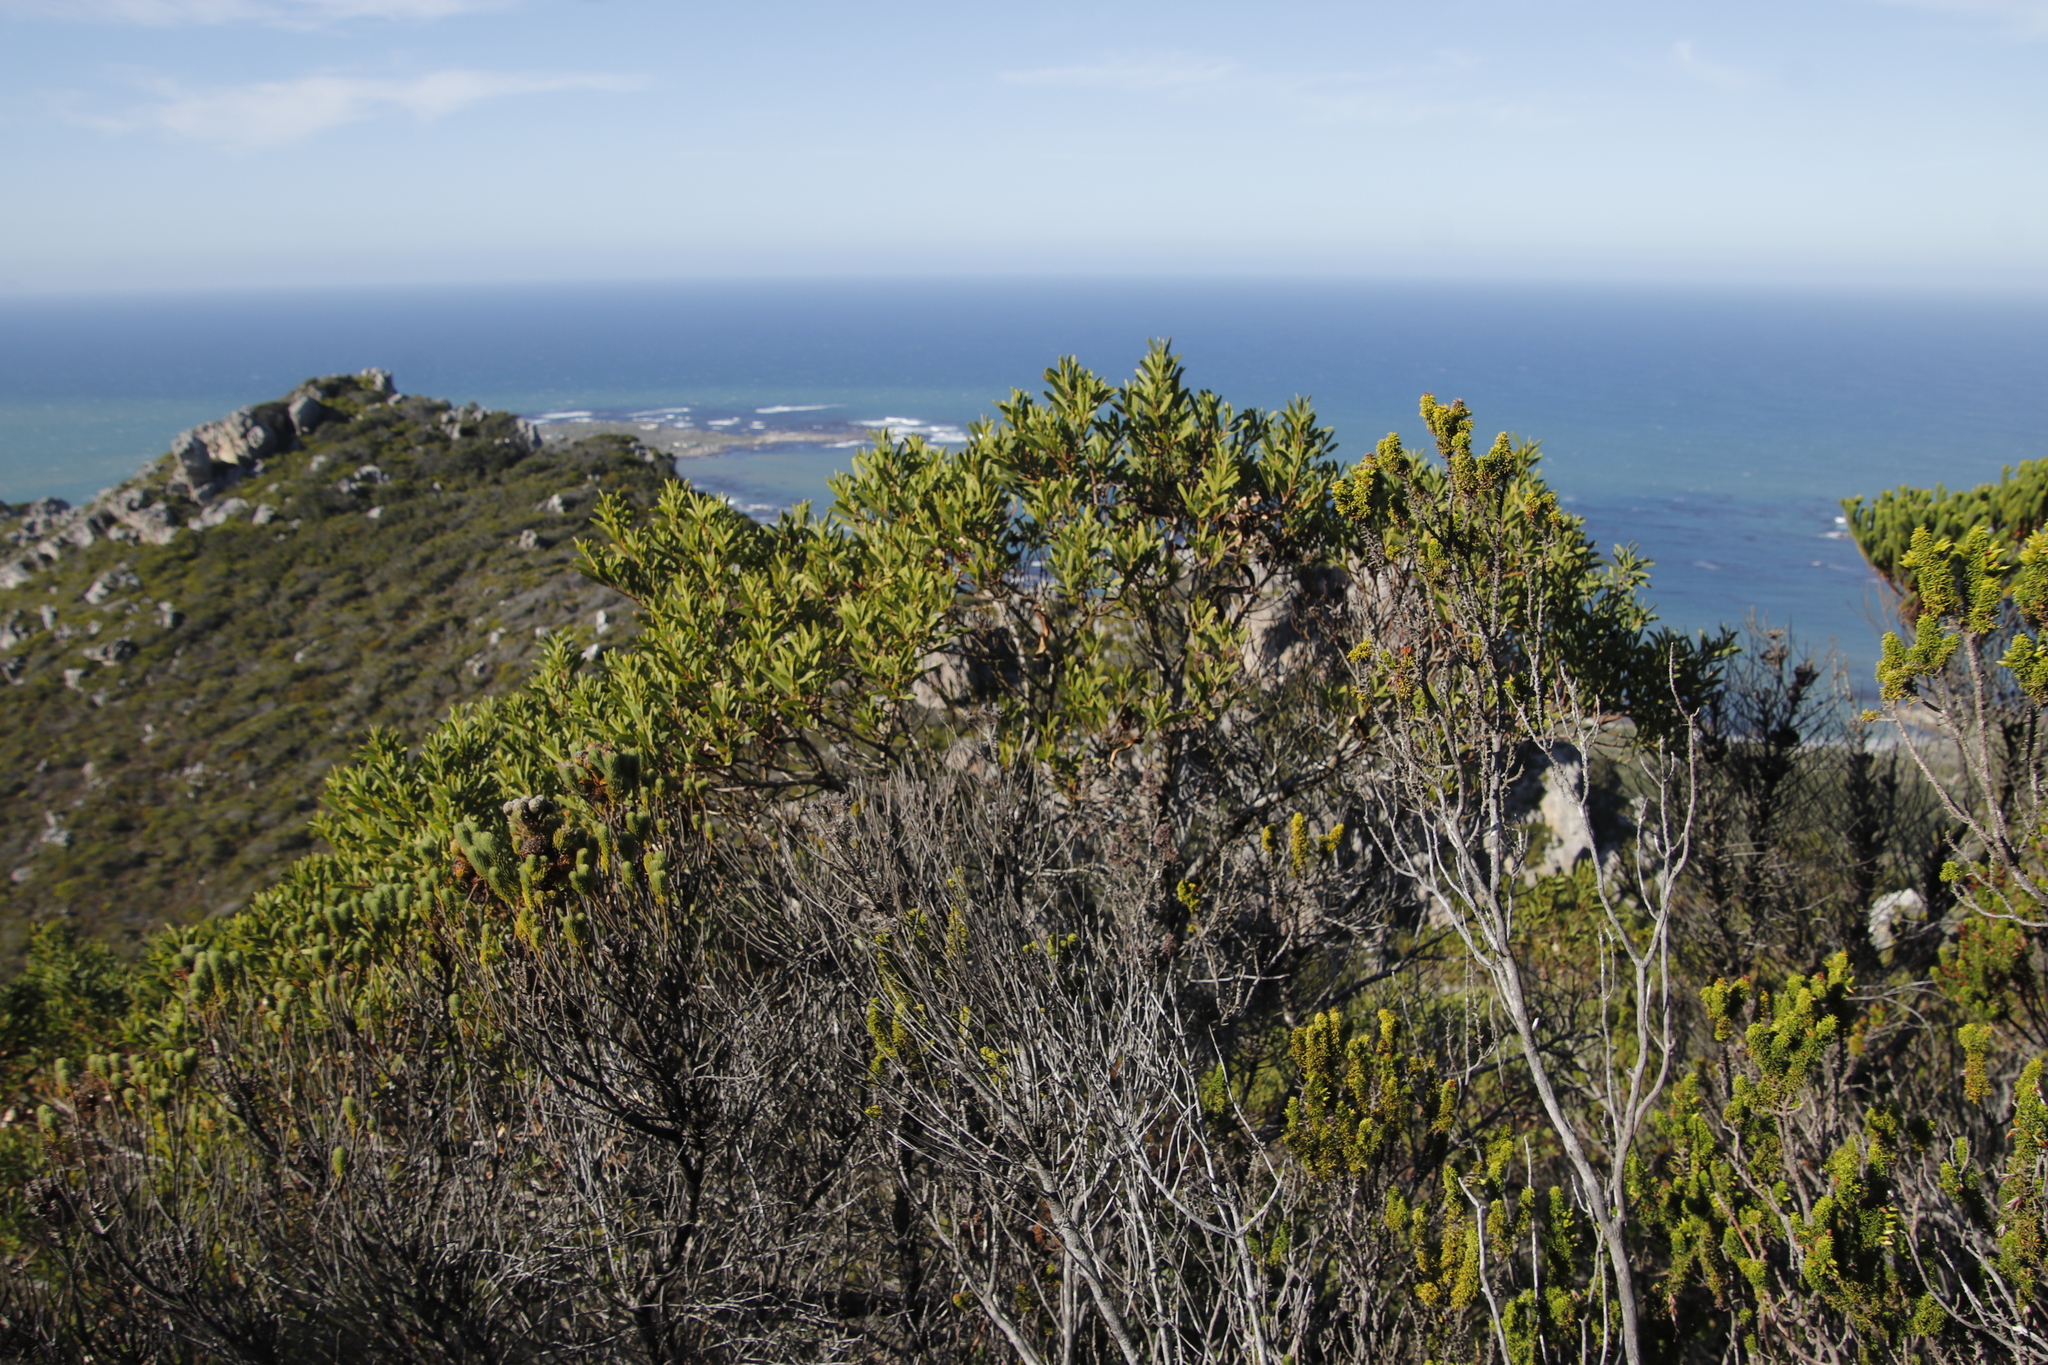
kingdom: Plantae
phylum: Tracheophyta
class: Magnoliopsida
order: Fabales
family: Fabaceae
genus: Acacia
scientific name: Acacia cyclops
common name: Coastal wattle
